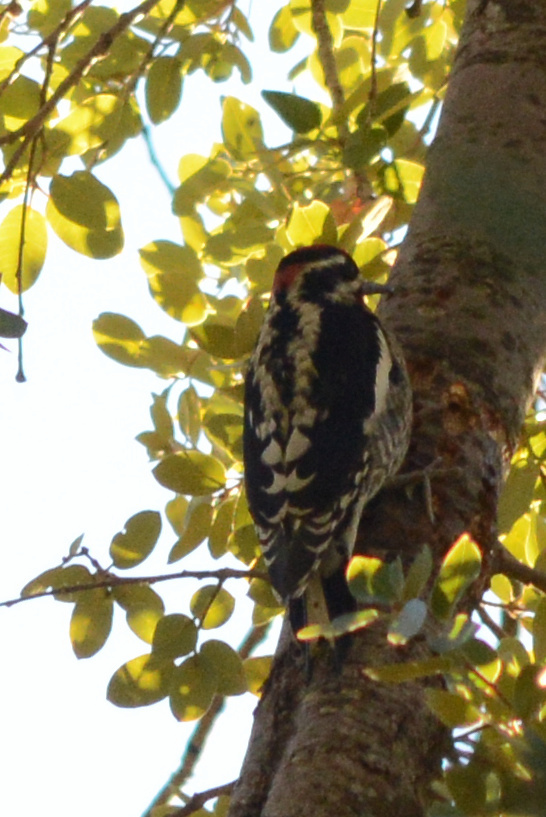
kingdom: Animalia
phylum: Chordata
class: Aves
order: Piciformes
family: Picidae
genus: Sphyrapicus
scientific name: Sphyrapicus nuchalis
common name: Red-naped sapsucker
